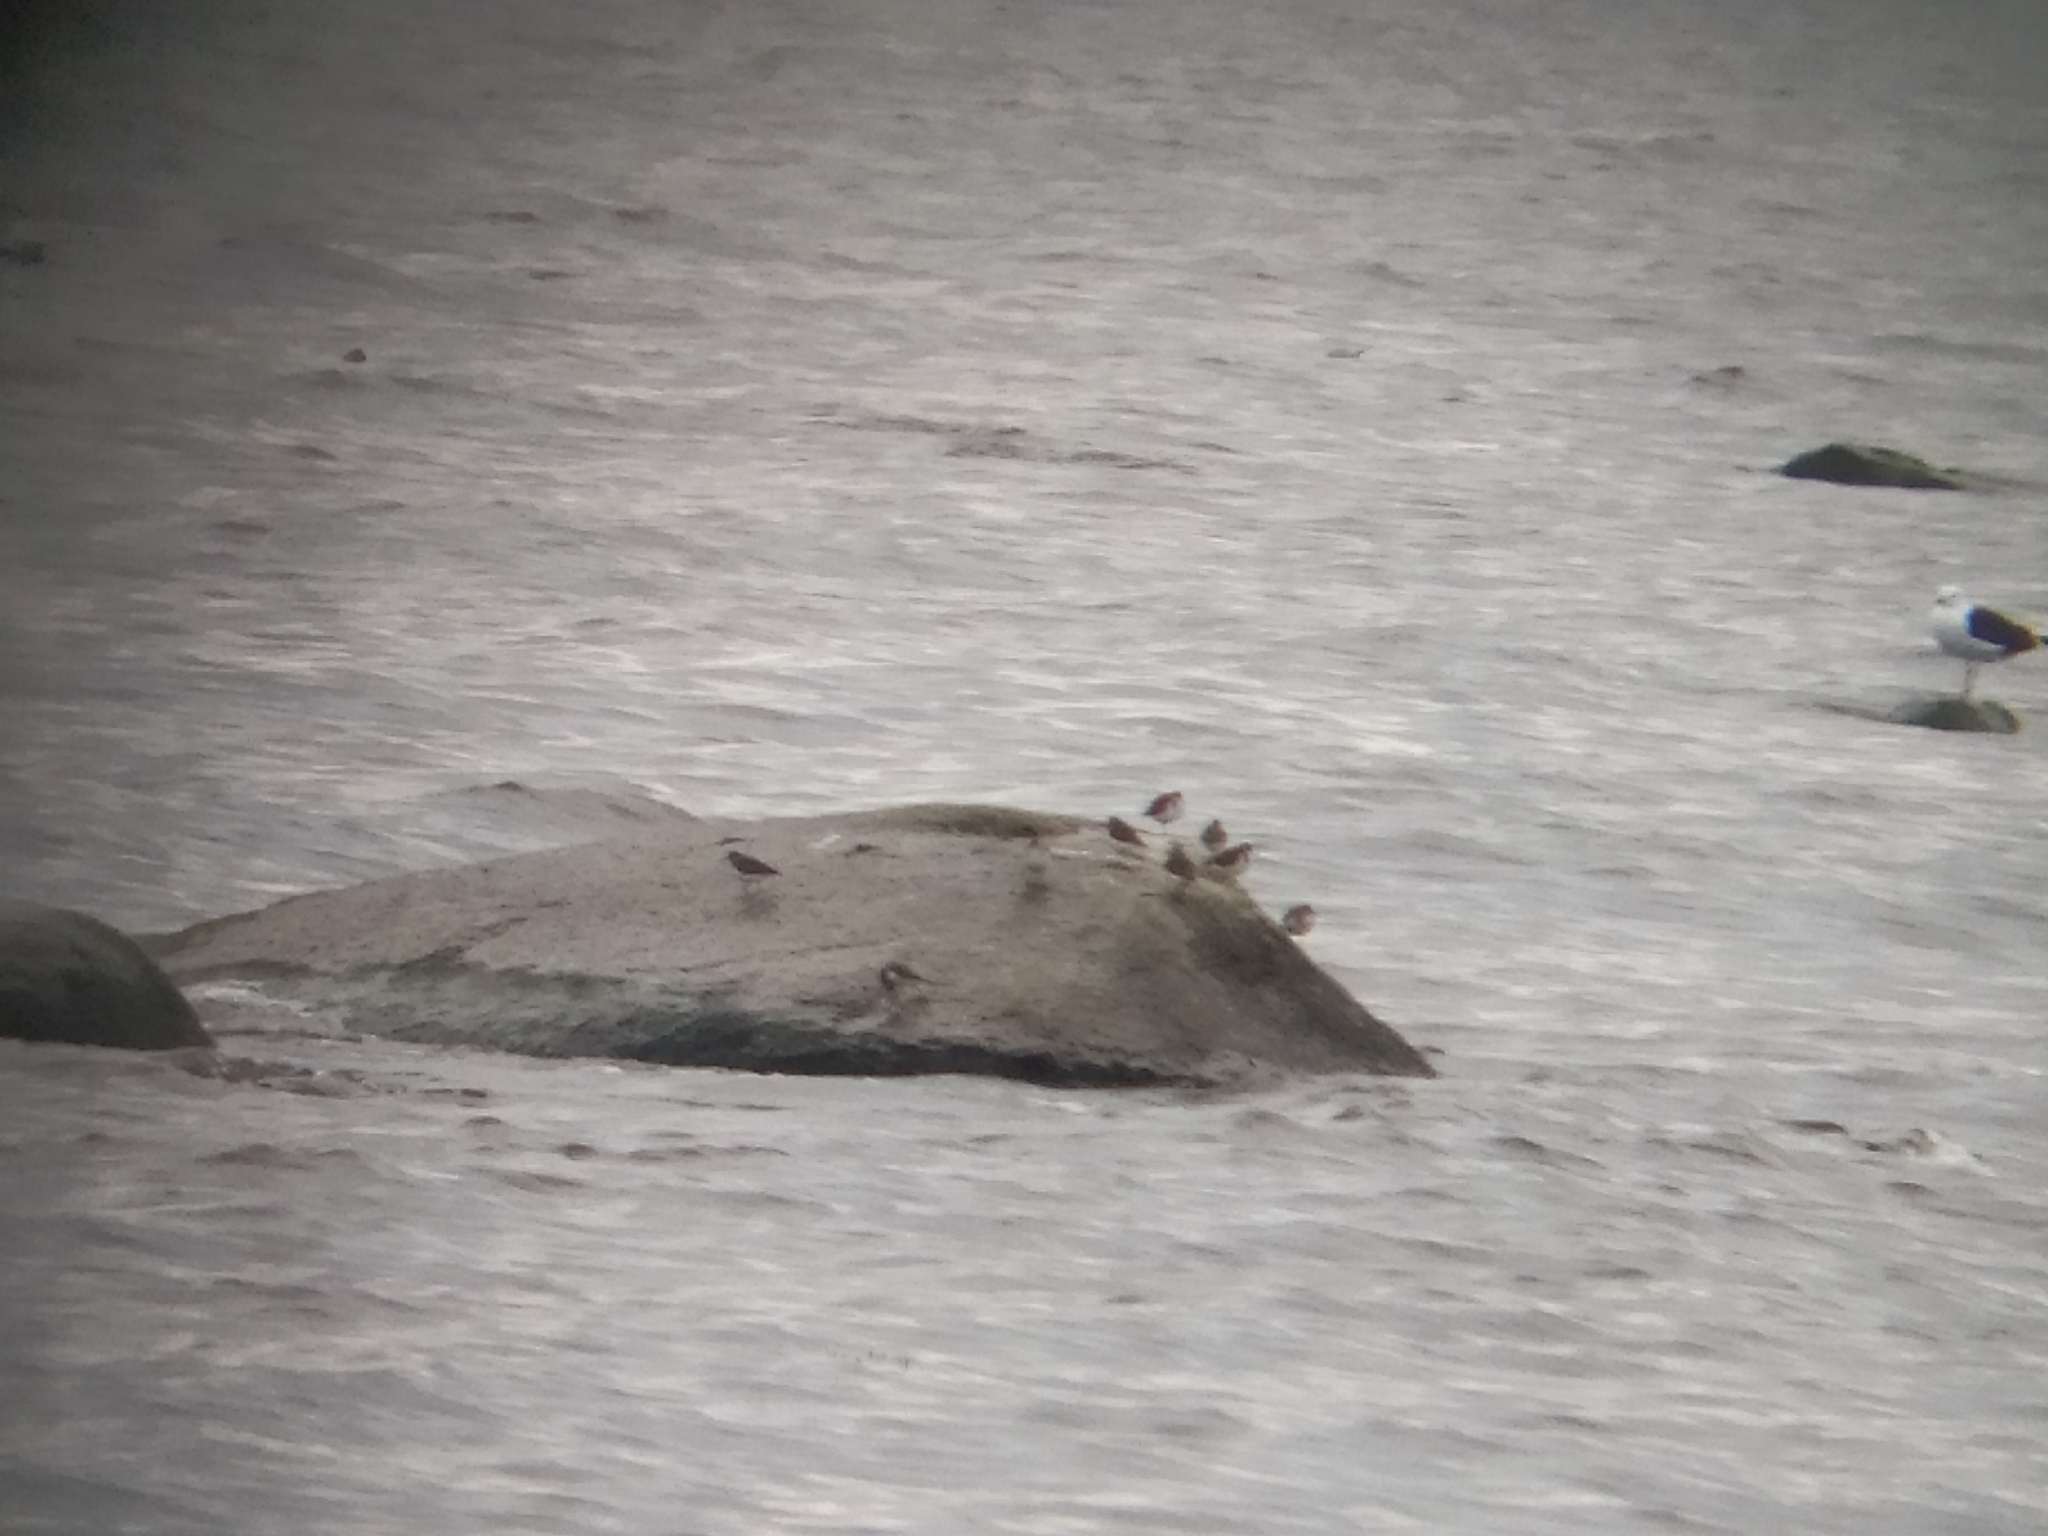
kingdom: Animalia
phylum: Chordata
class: Aves
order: Charadriiformes
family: Scolopacidae
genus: Actitis
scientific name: Actitis hypoleucos
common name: Common sandpiper
